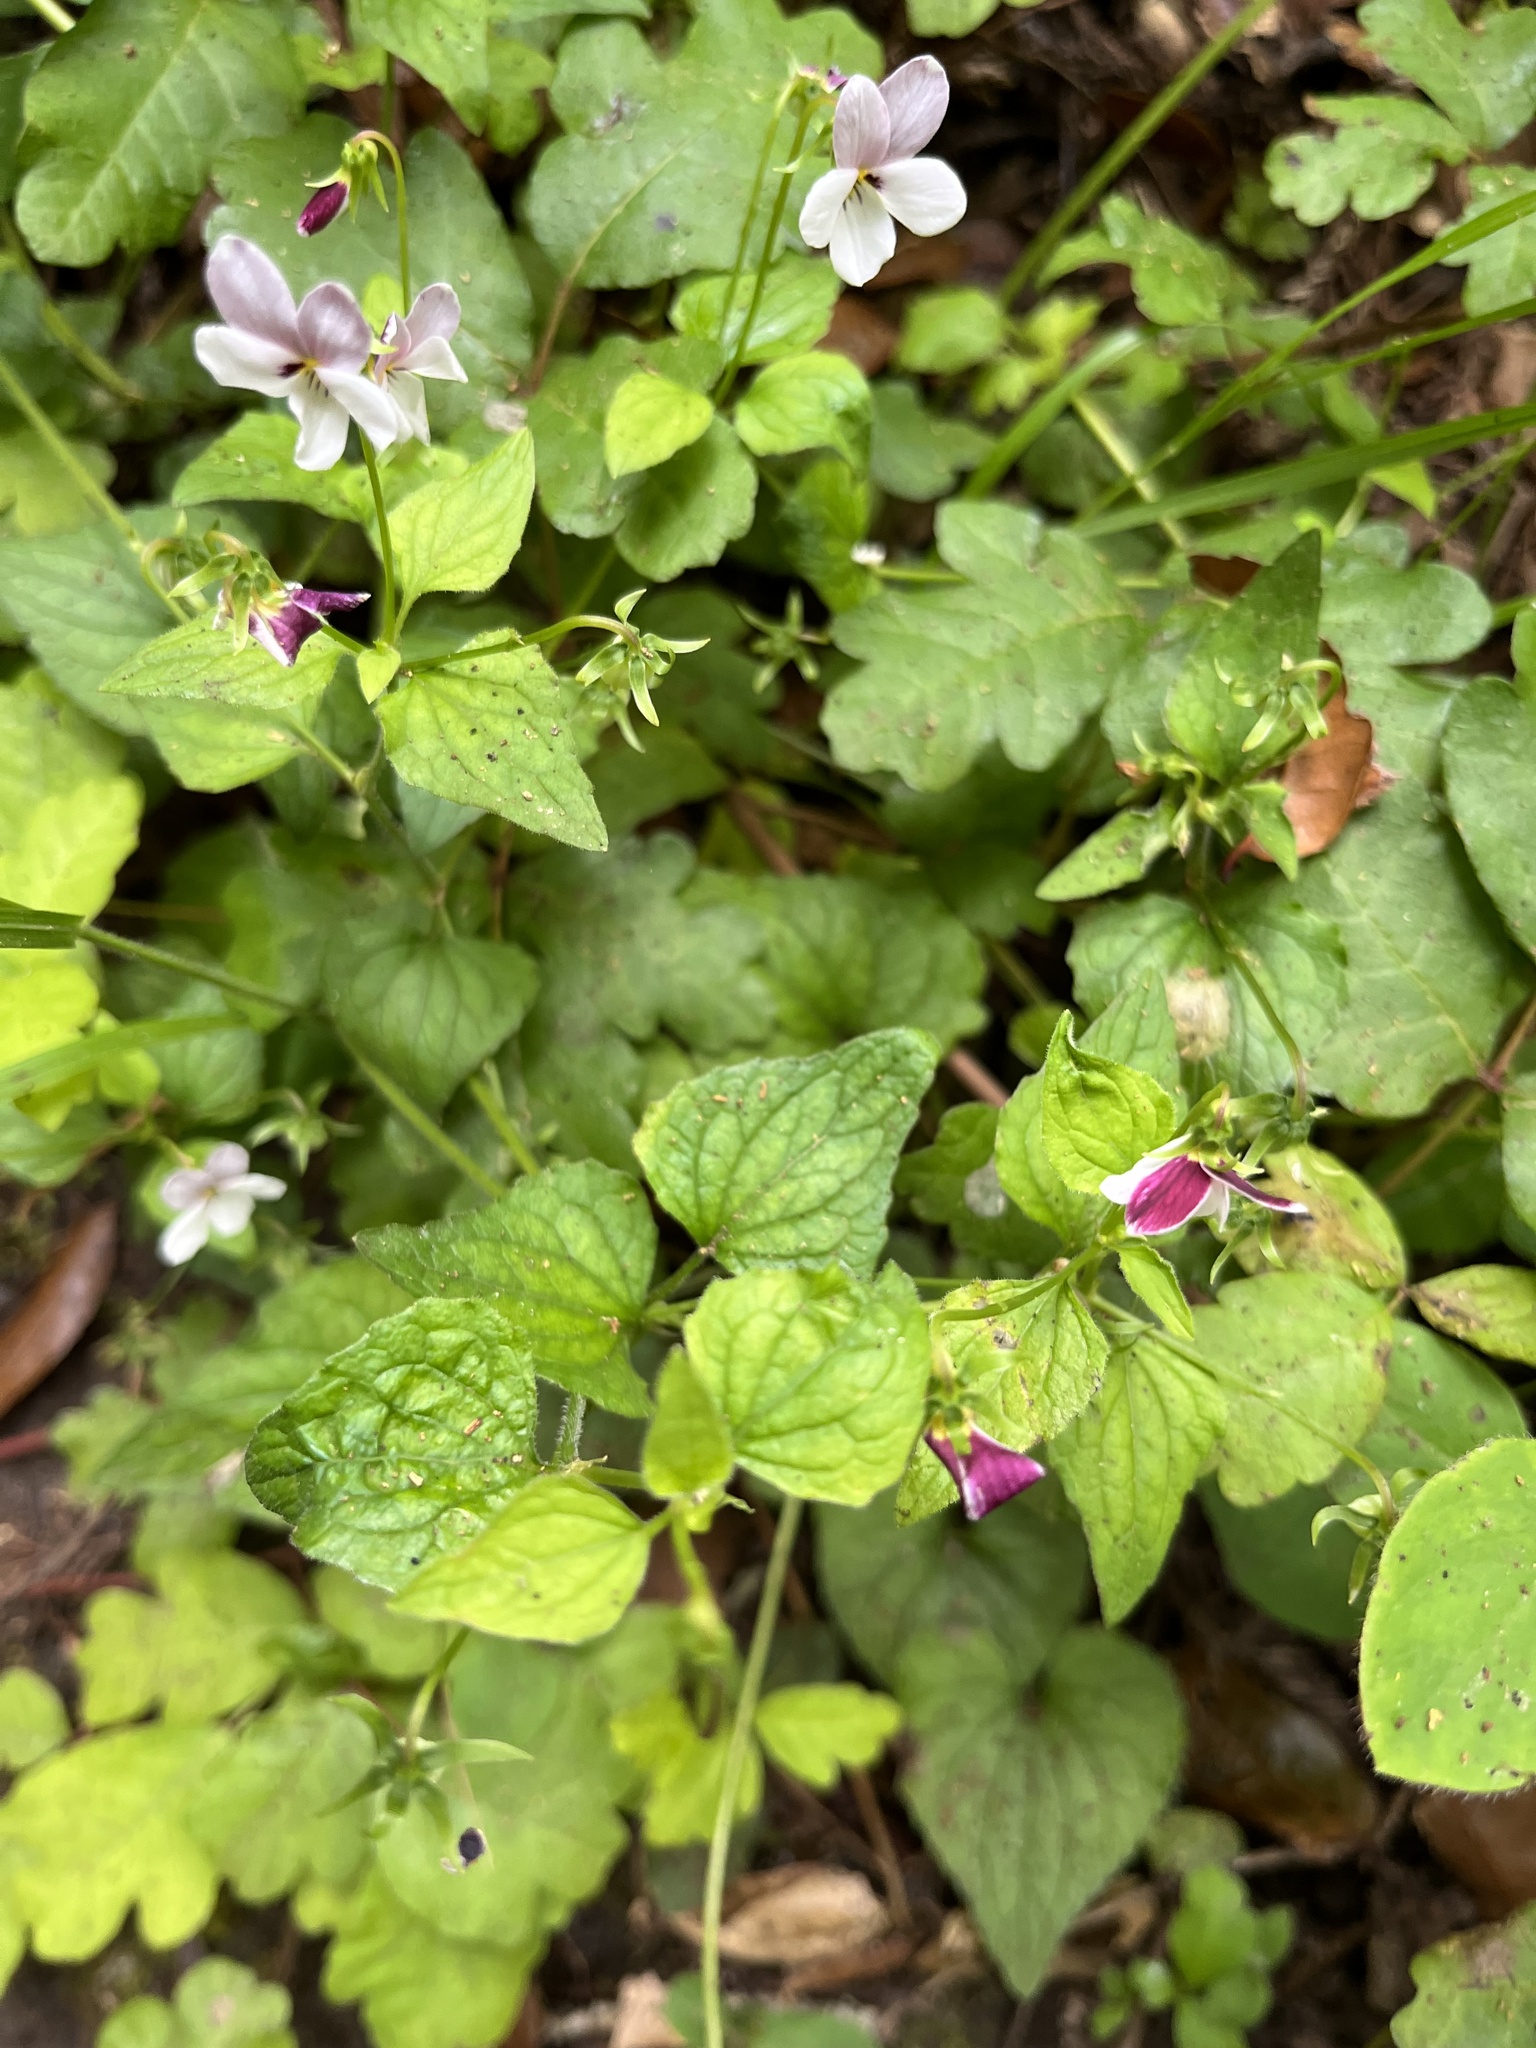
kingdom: Plantae
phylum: Tracheophyta
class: Magnoliopsida
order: Malpighiales
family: Violaceae
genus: Viola
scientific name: Viola ocellata
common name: Western heart's ease
